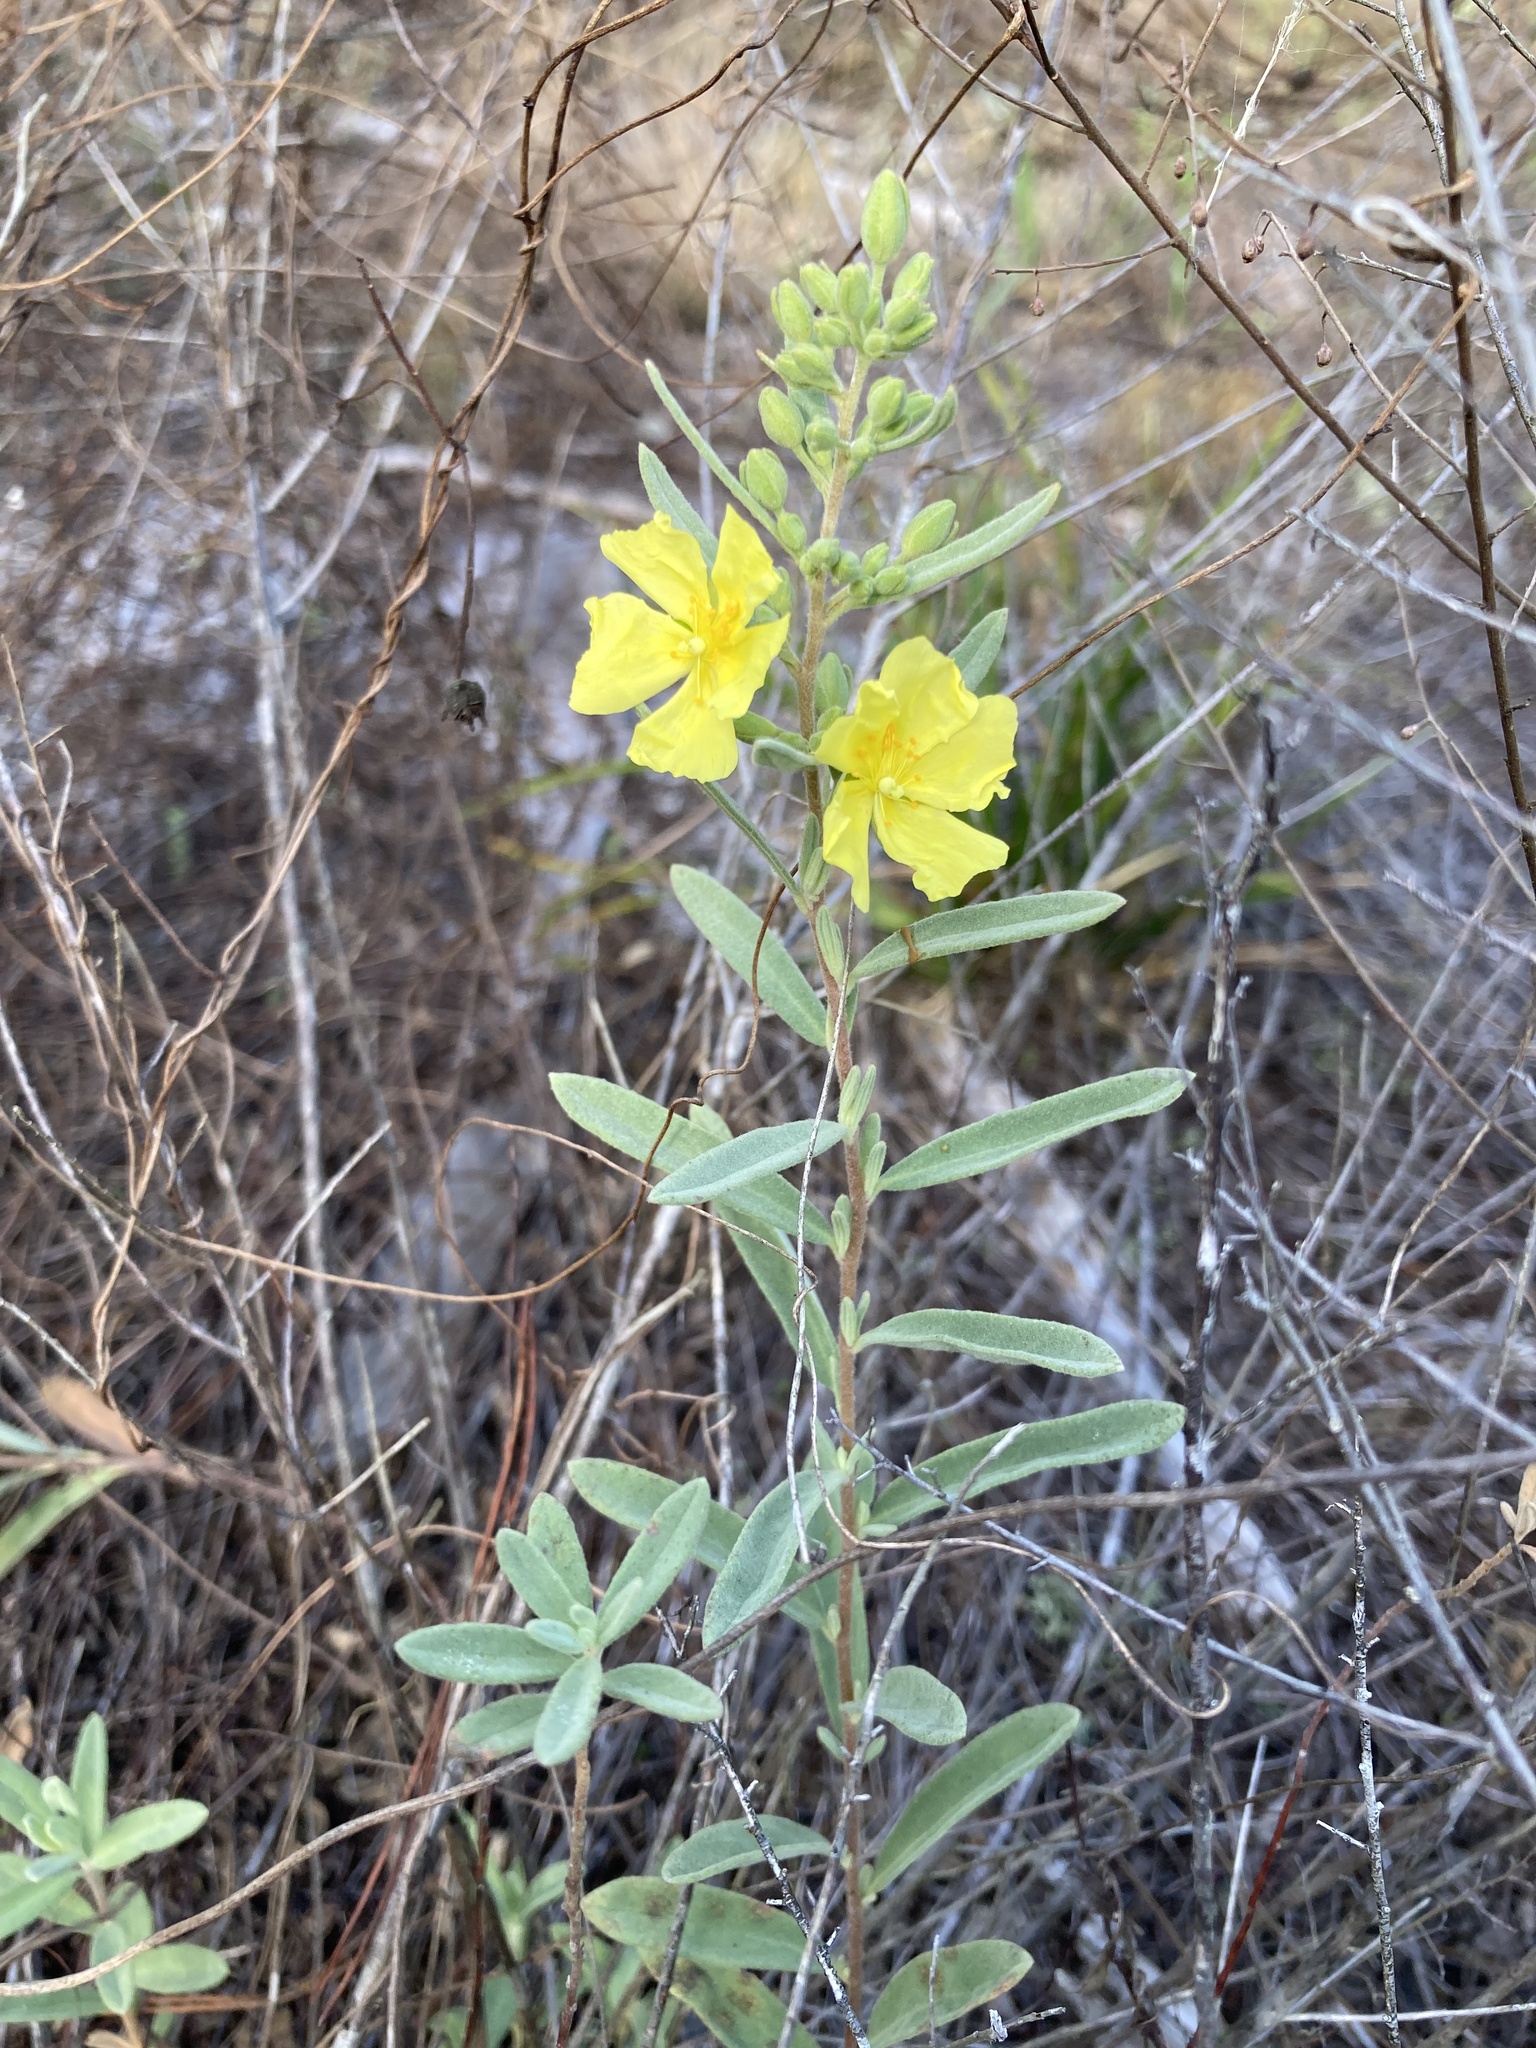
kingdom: Plantae
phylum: Tracheophyta
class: Magnoliopsida
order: Malvales
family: Cistaceae
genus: Crocanthemum
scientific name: Crocanthemum nashii
